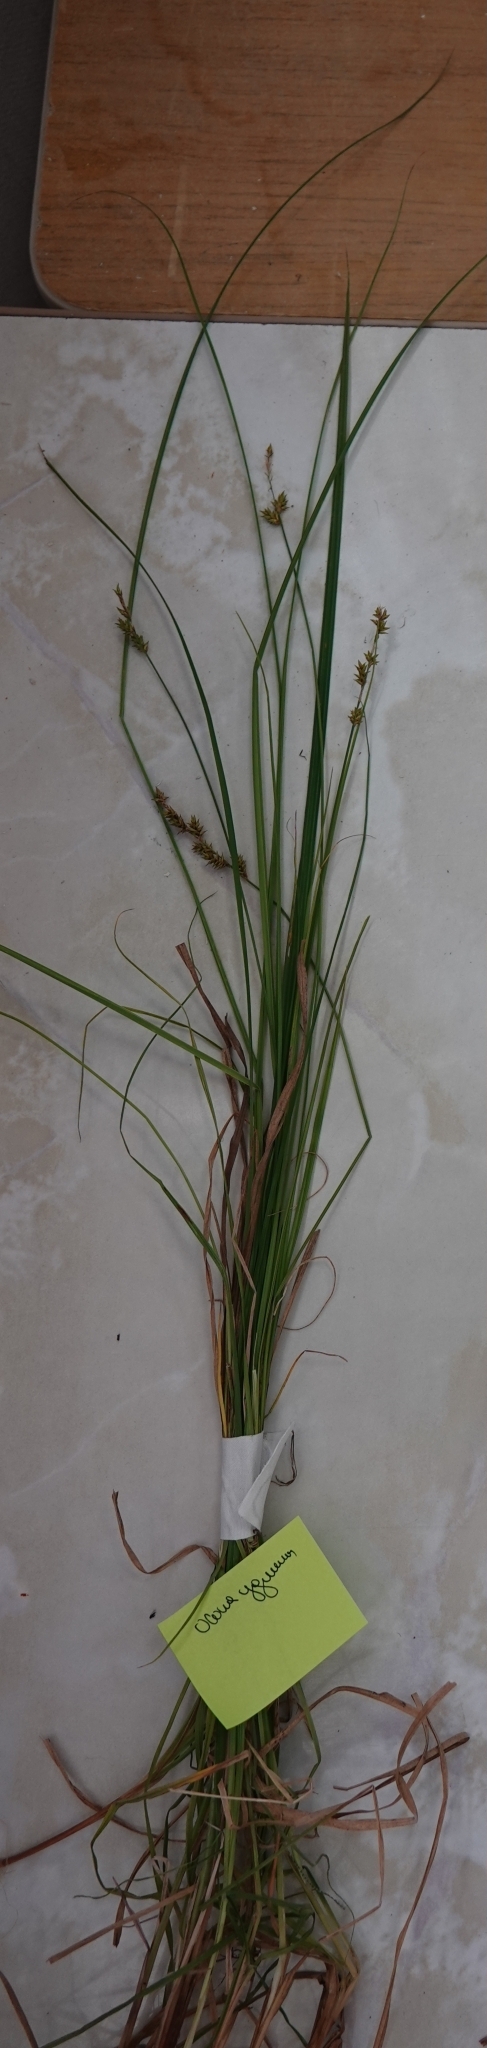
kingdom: Plantae
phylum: Tracheophyta
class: Liliopsida
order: Poales
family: Cyperaceae
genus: Carex
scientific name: Carex elongata
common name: Elongated sedge
